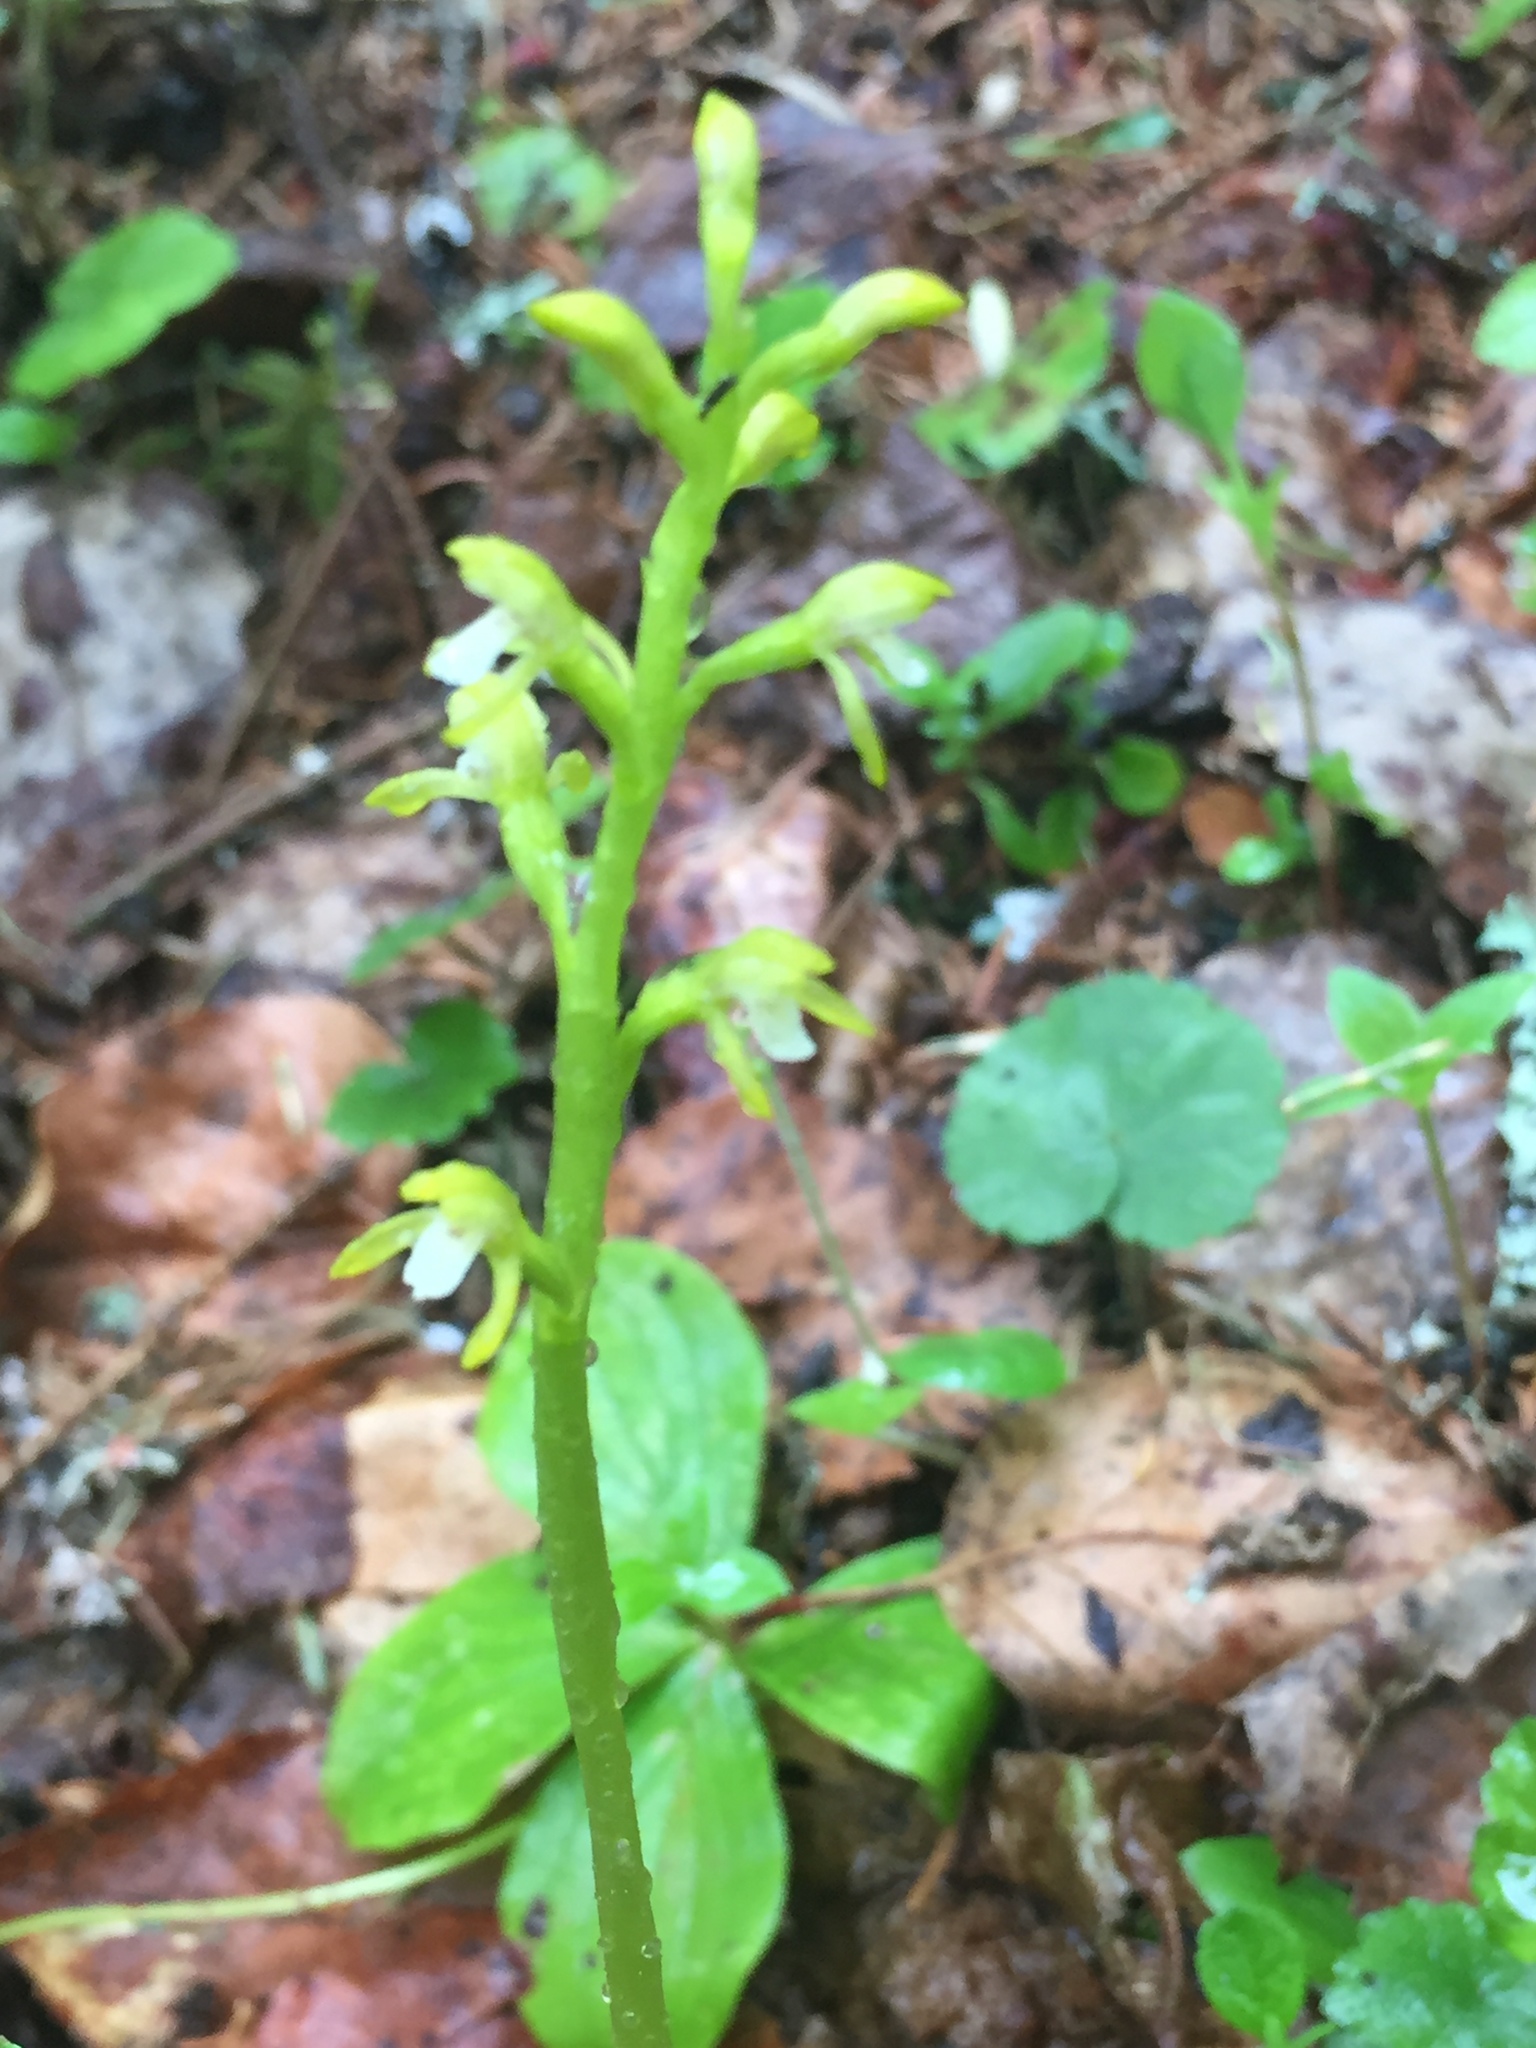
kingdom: Plantae
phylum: Tracheophyta
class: Liliopsida
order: Asparagales
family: Orchidaceae
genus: Corallorhiza
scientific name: Corallorhiza trifida
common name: Yellow coralroot
